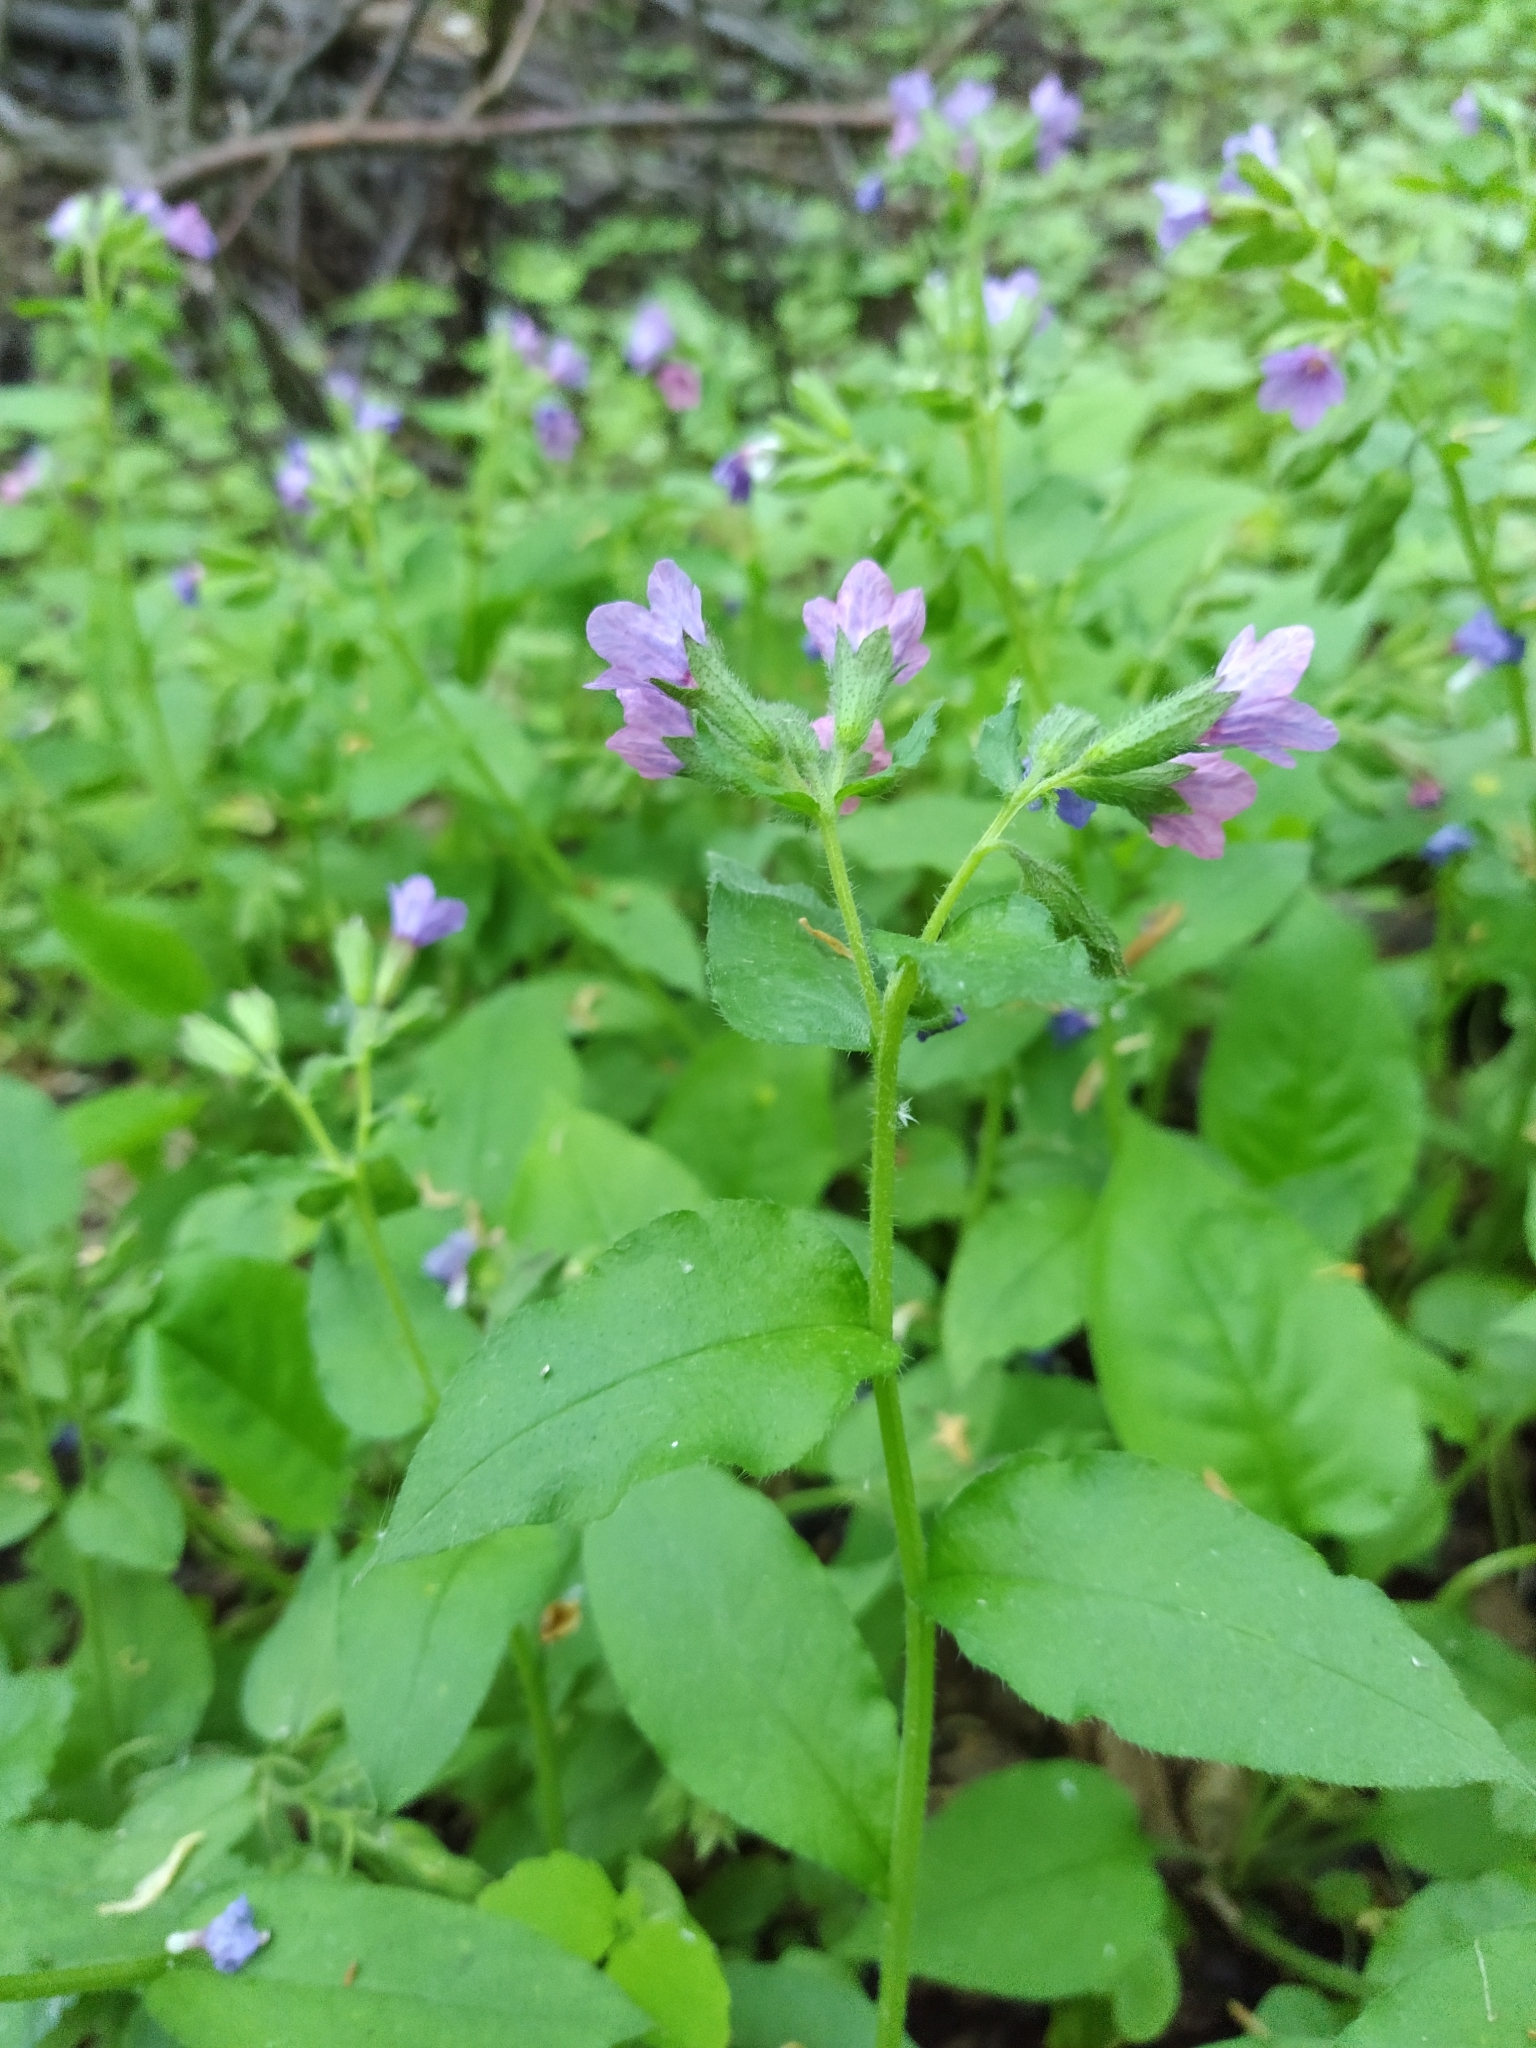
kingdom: Plantae
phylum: Tracheophyta
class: Magnoliopsida
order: Boraginales
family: Boraginaceae
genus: Pulmonaria
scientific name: Pulmonaria obscura
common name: Suffolk lungwort
